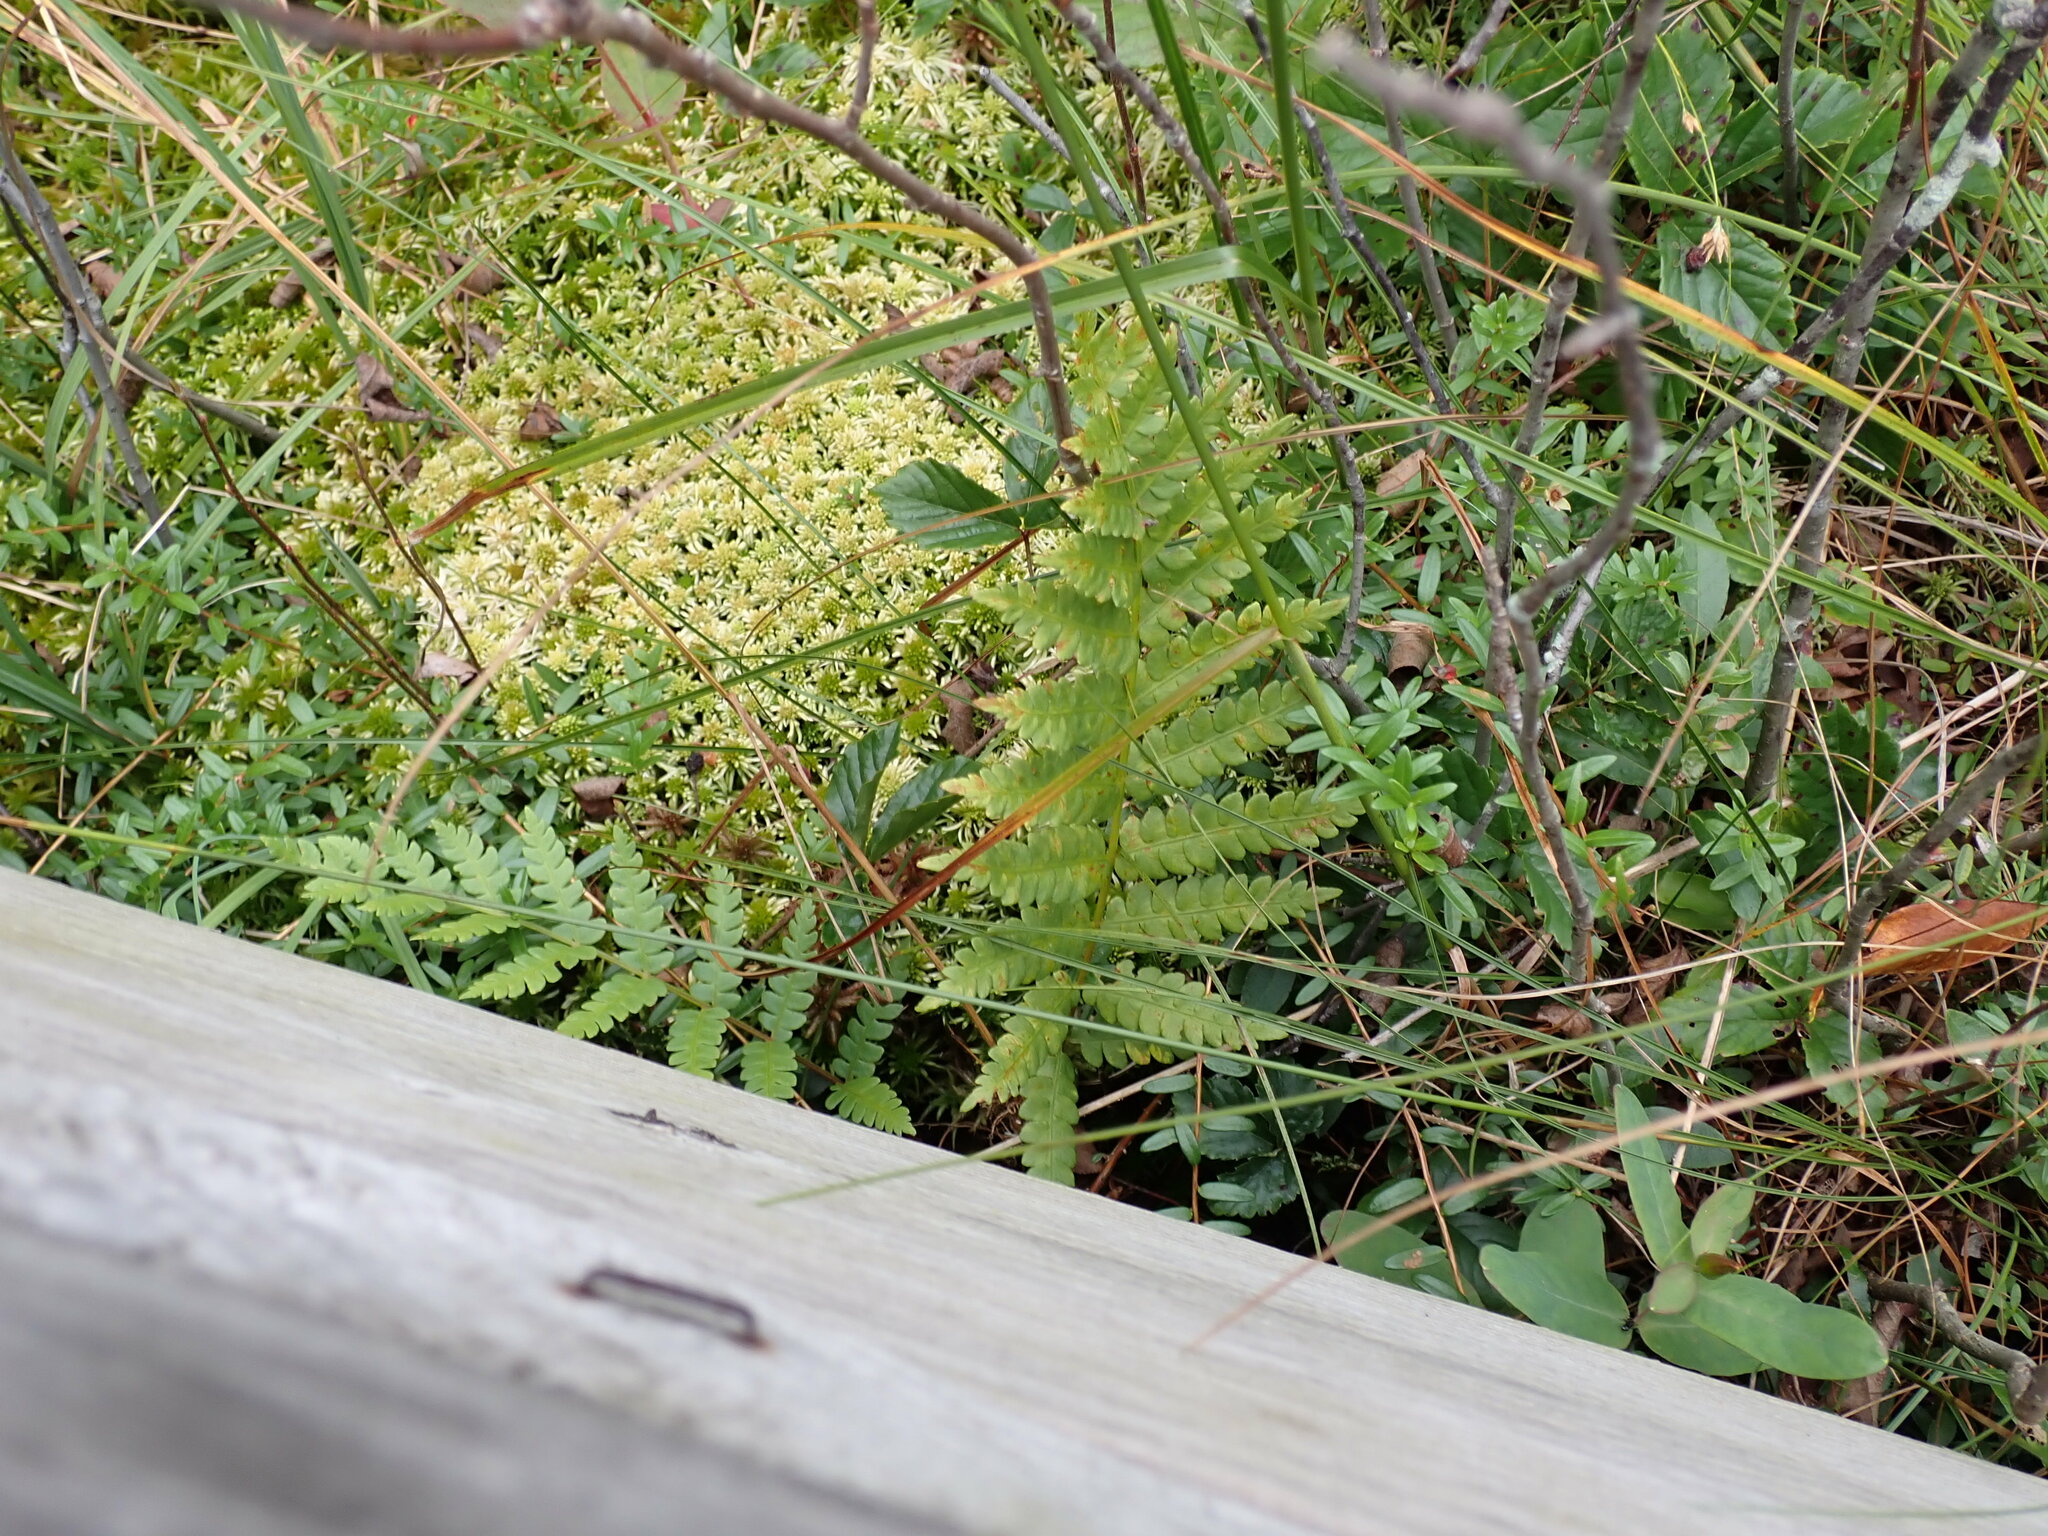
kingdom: Plantae
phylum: Tracheophyta
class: Polypodiopsida
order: Osmundales
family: Osmundaceae
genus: Osmundastrum
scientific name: Osmundastrum cinnamomeum
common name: Cinnamon fern
